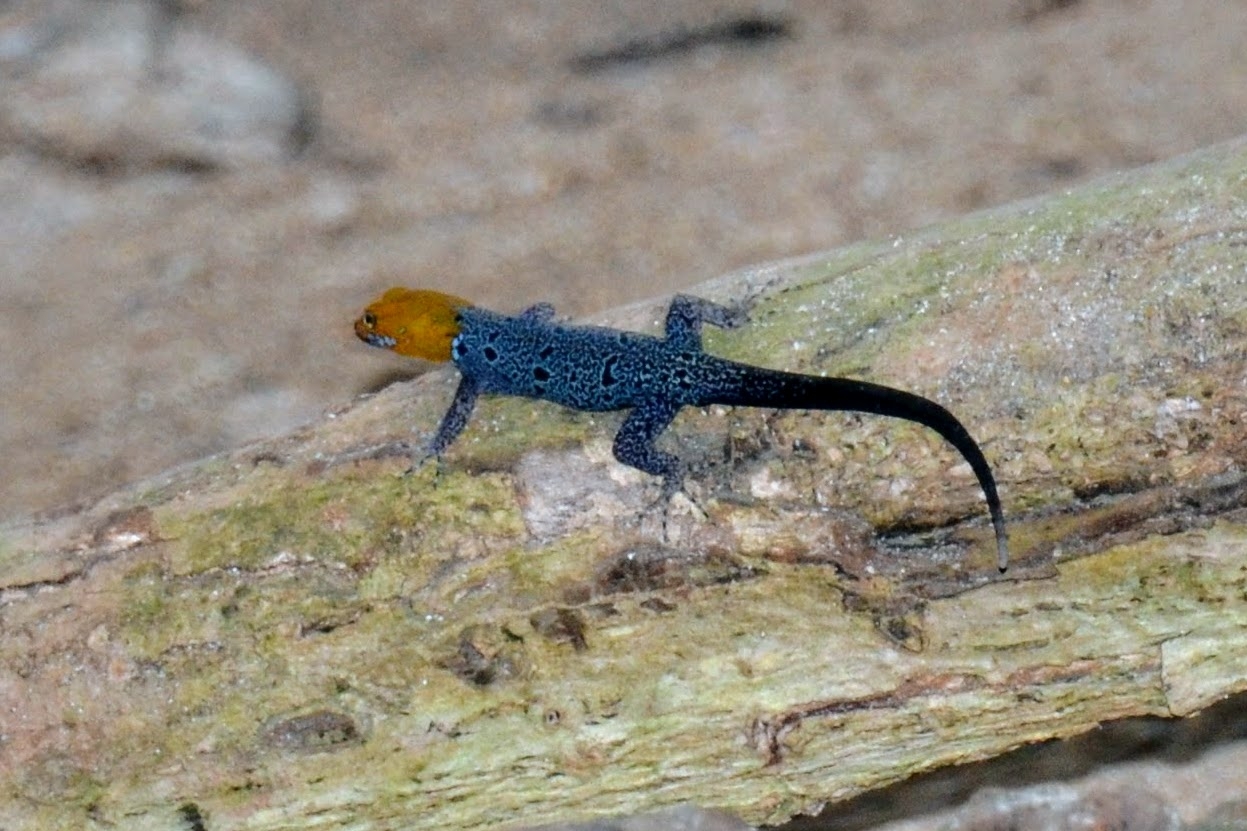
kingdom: Animalia
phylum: Chordata
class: Squamata
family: Sphaerodactylidae
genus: Gonatodes
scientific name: Gonatodes albogularis
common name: Yellow-headed gecko
